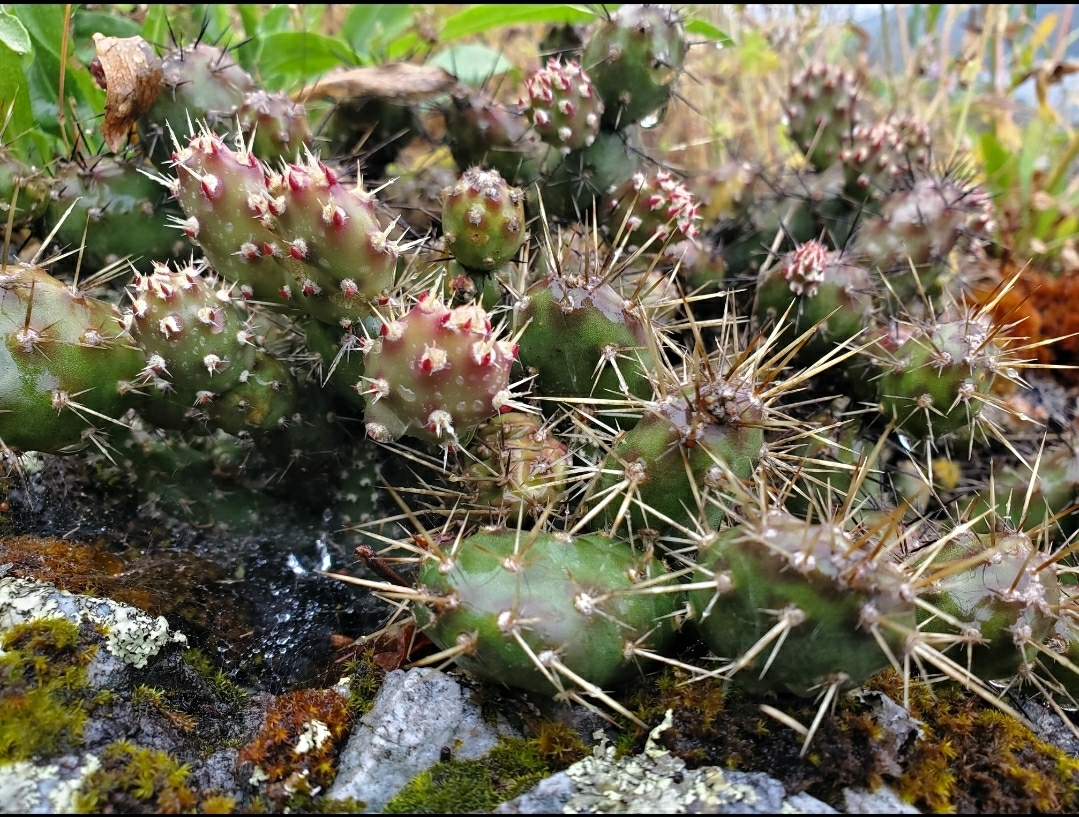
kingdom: Plantae
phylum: Tracheophyta
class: Magnoliopsida
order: Caryophyllales
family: Cactaceae
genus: Opuntia
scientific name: Opuntia fragilis
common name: Brittle cactus
